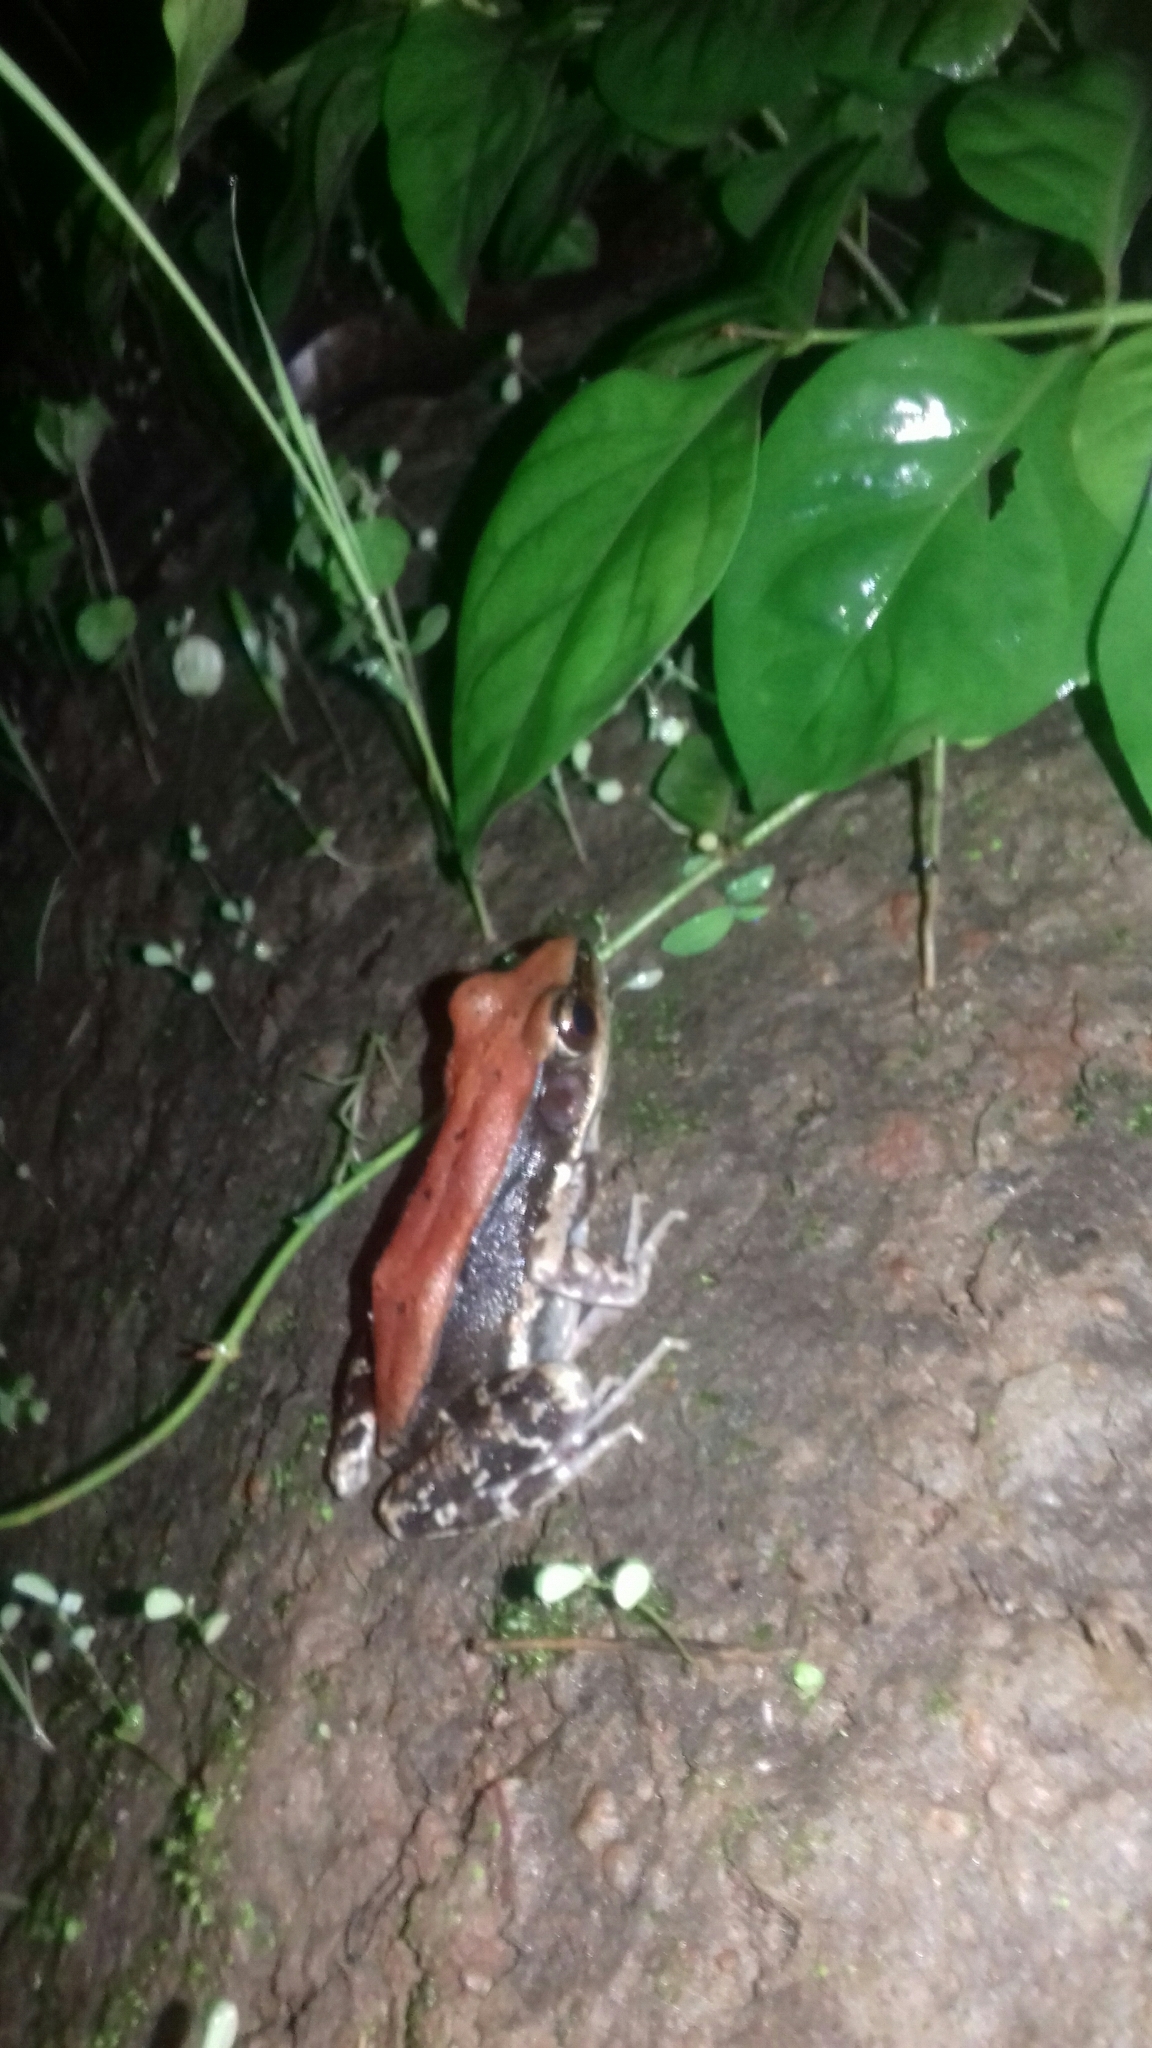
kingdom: Animalia
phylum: Chordata
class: Amphibia
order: Anura
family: Ranidae
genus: Hydrophylax
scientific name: Hydrophylax bahuvistara
